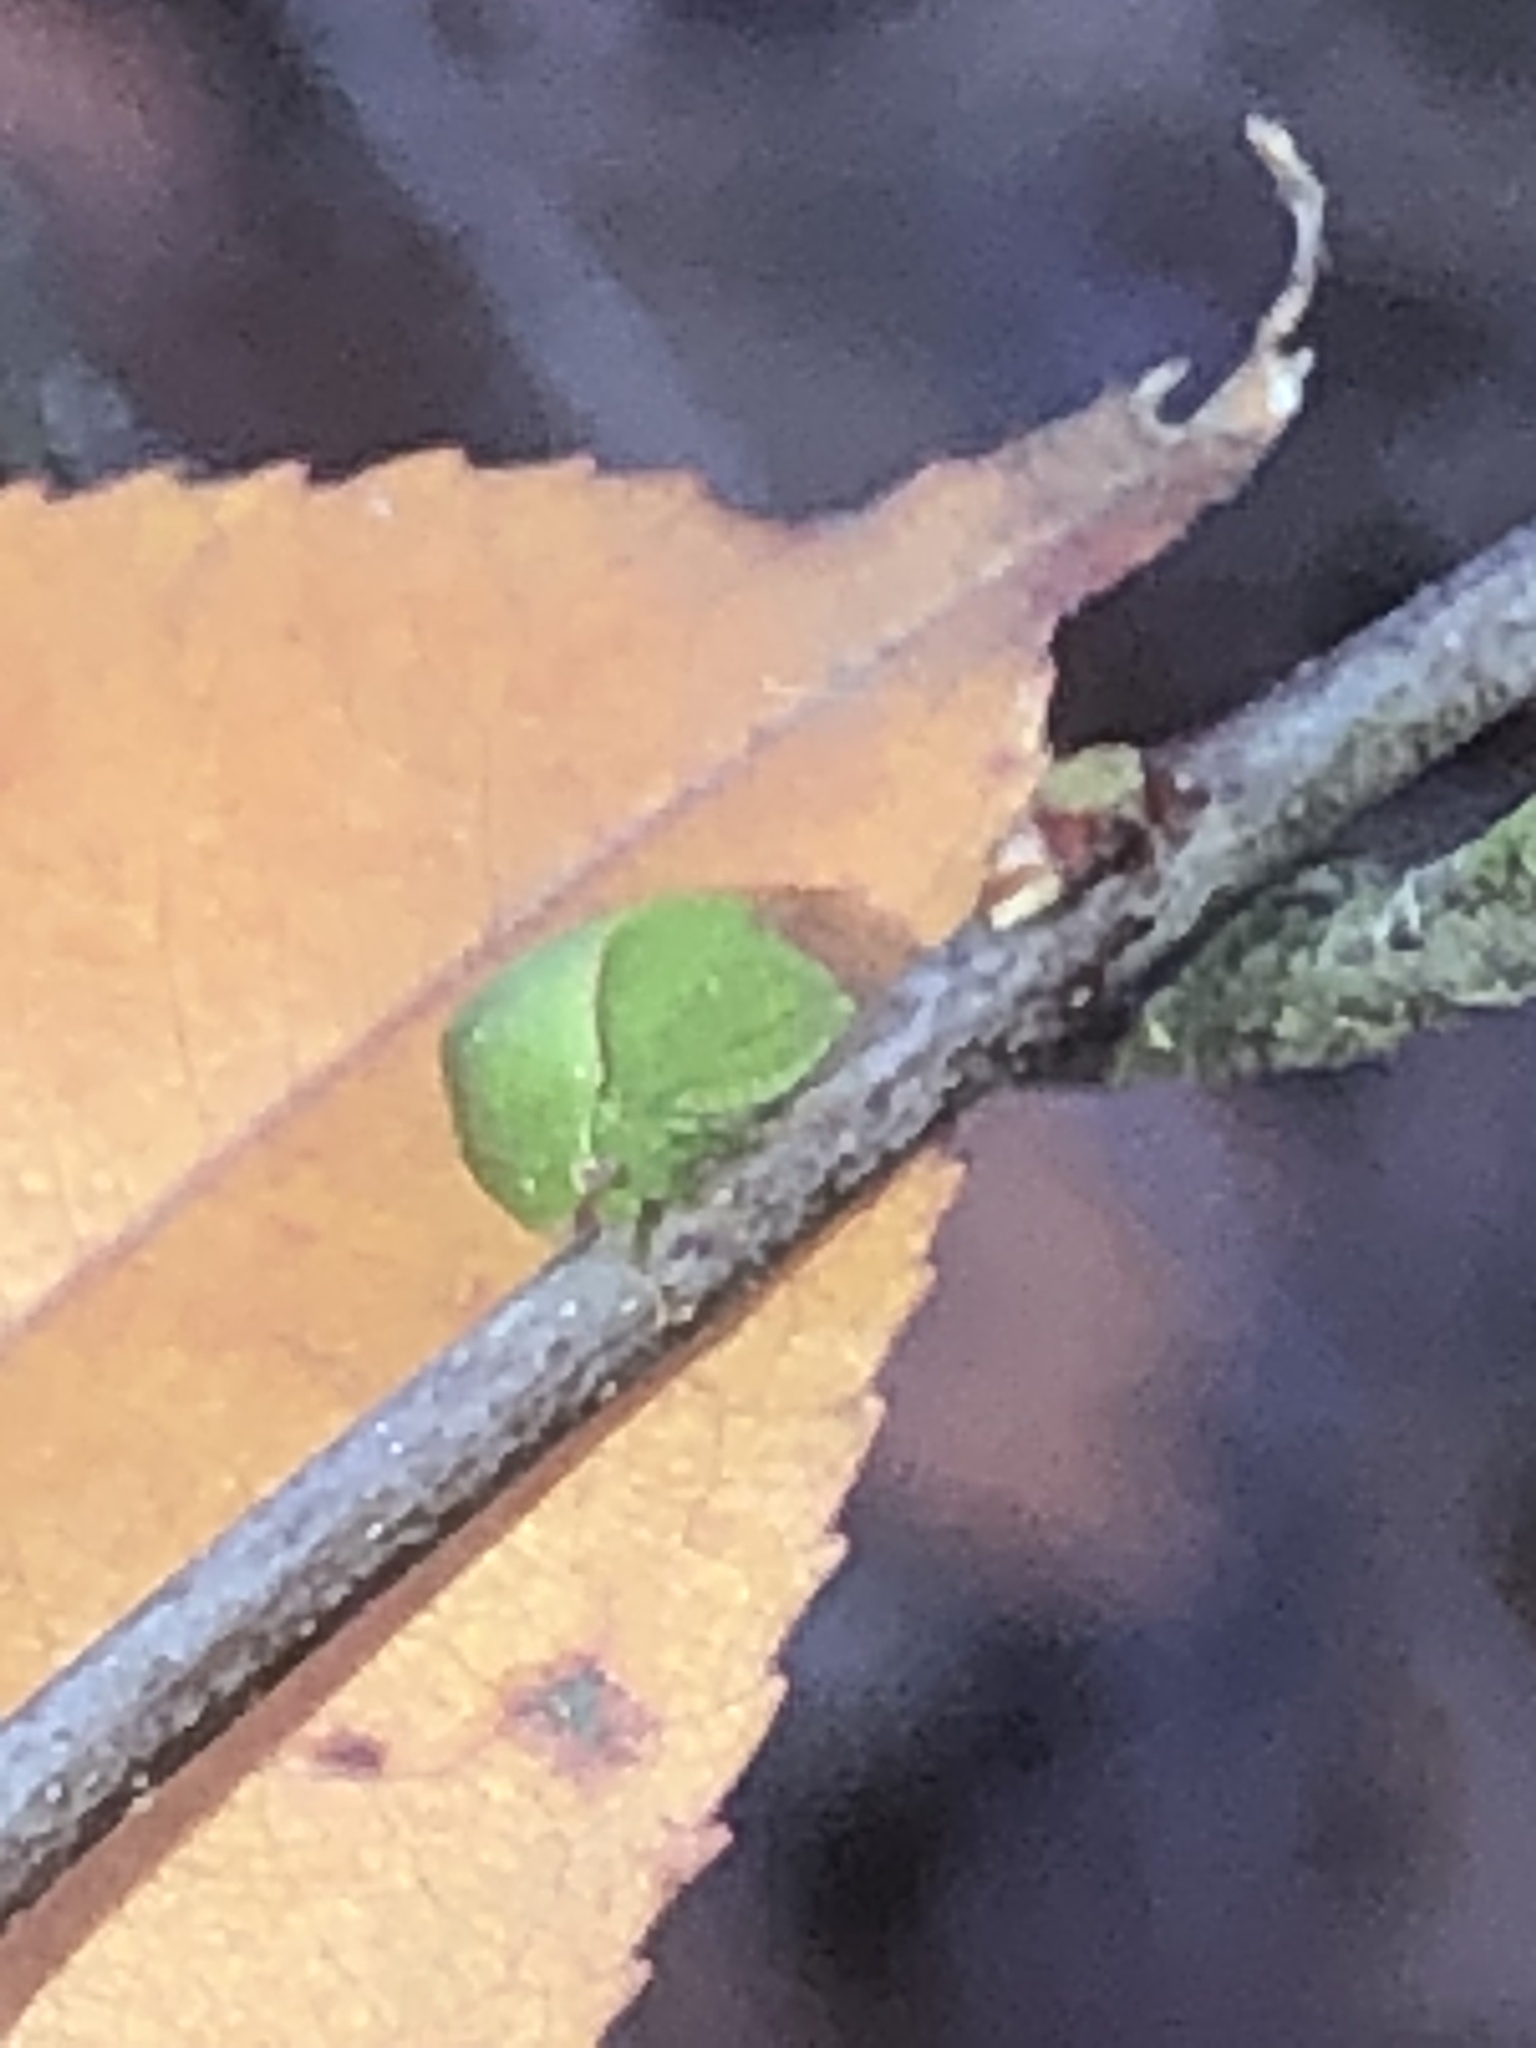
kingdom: Animalia
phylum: Arthropoda
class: Insecta
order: Hemiptera
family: Membracidae
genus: Spissistilus
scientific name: Spissistilus festina
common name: Membracid bug
